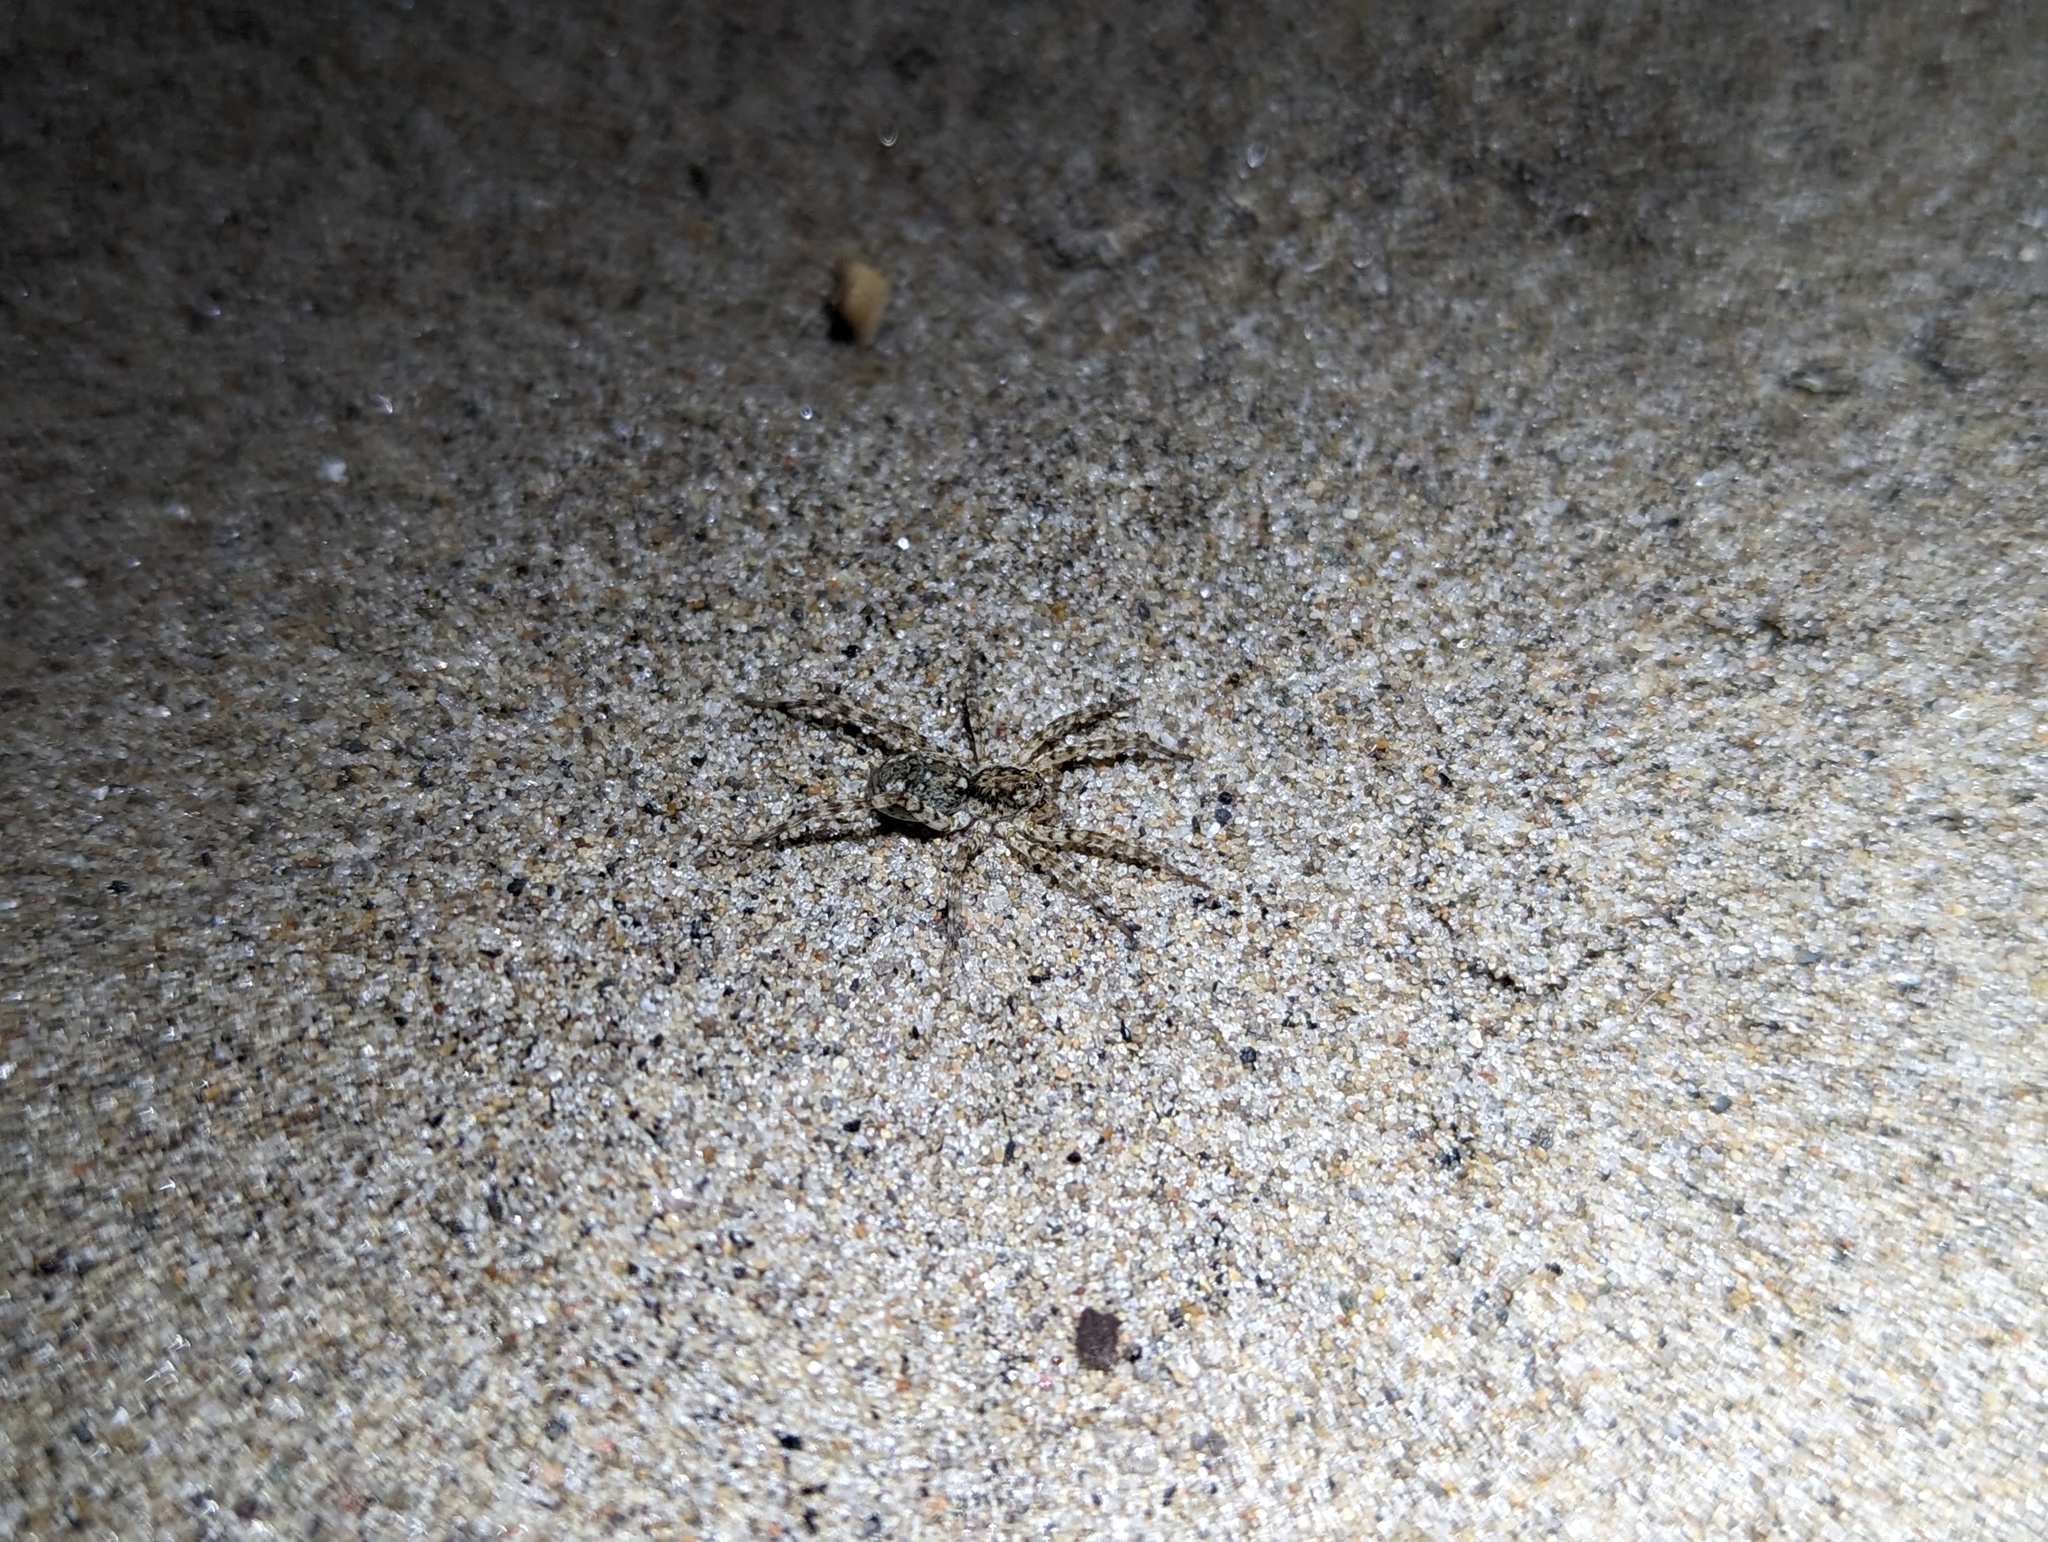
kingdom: Animalia
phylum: Arthropoda
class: Arachnida
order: Araneae
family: Lycosidae
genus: Arctosa
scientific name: Arctosa littoralis
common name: Wolf spiders
